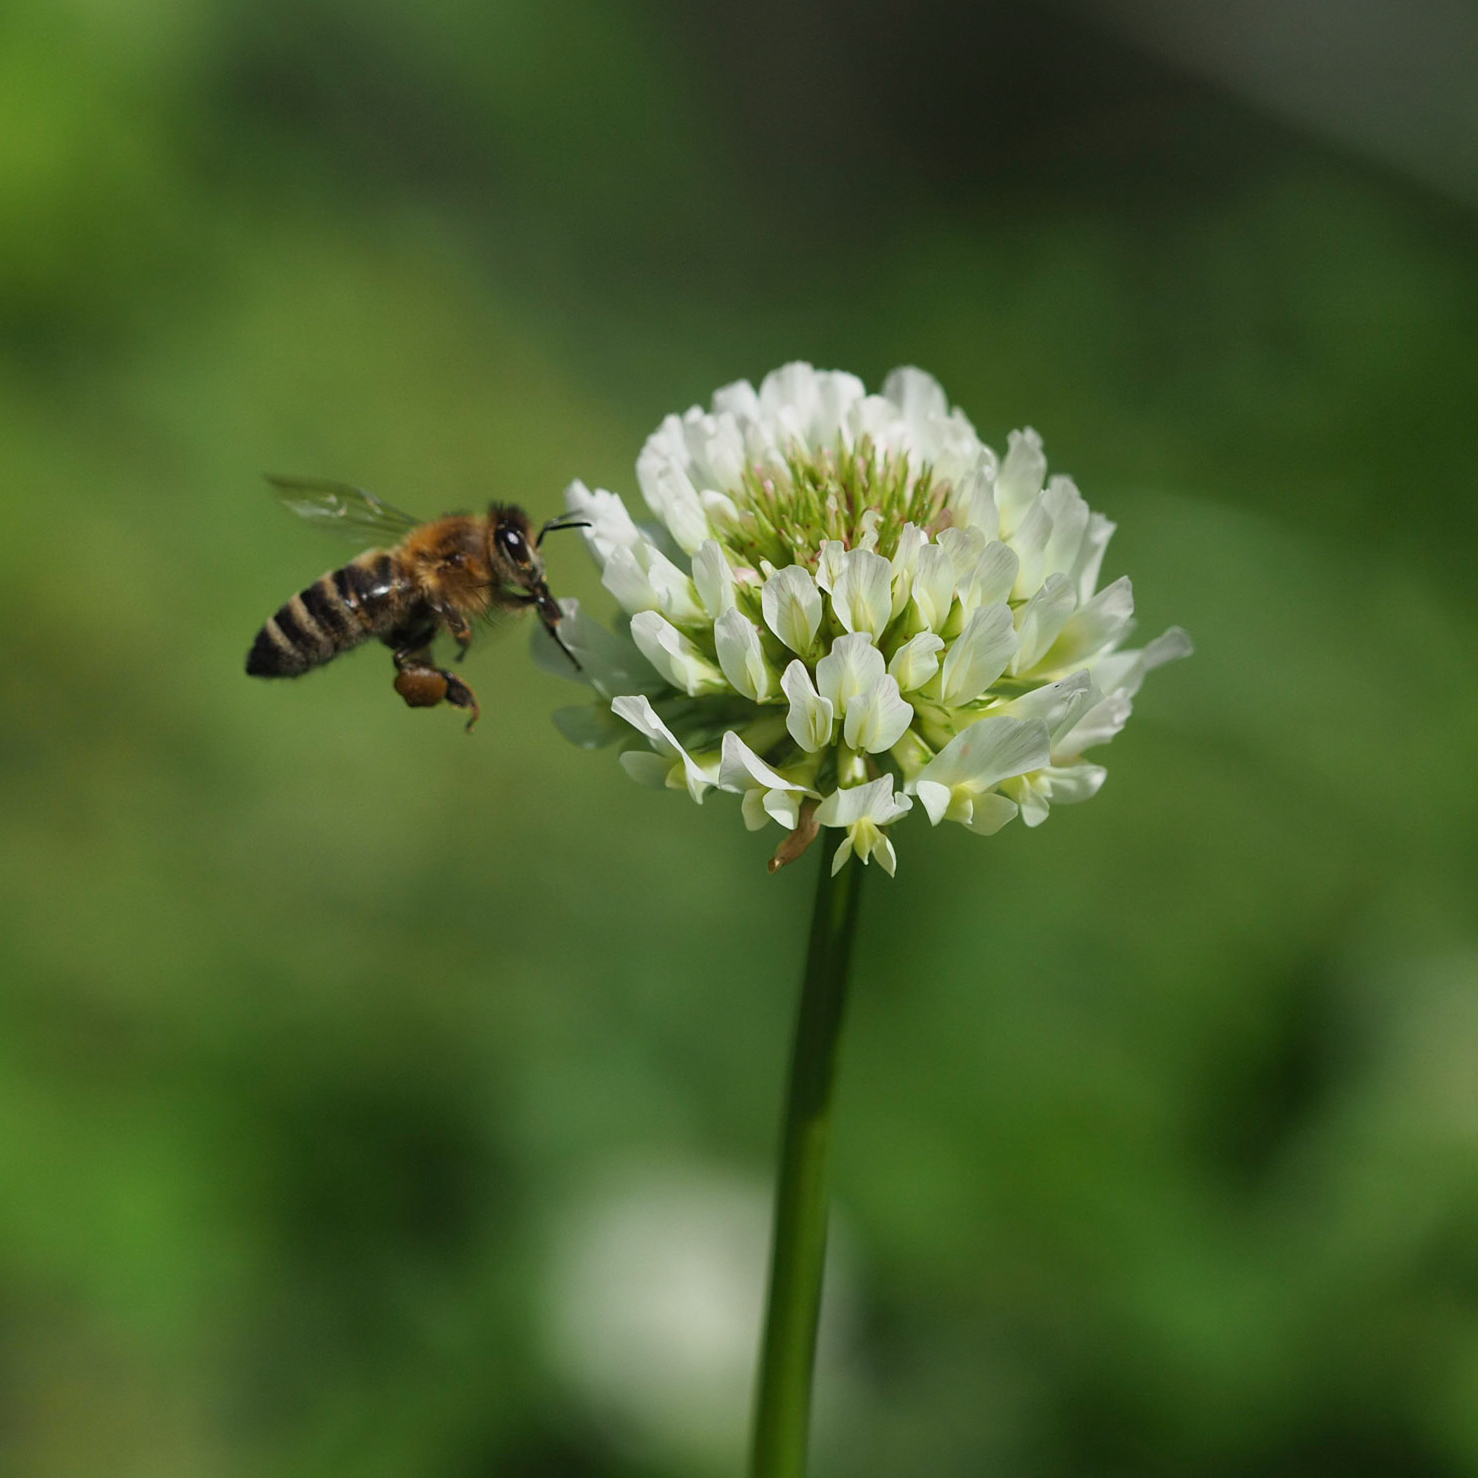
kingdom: Animalia
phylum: Arthropoda
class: Insecta
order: Hymenoptera
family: Apidae
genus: Apis
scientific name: Apis mellifera
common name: Honey bee
